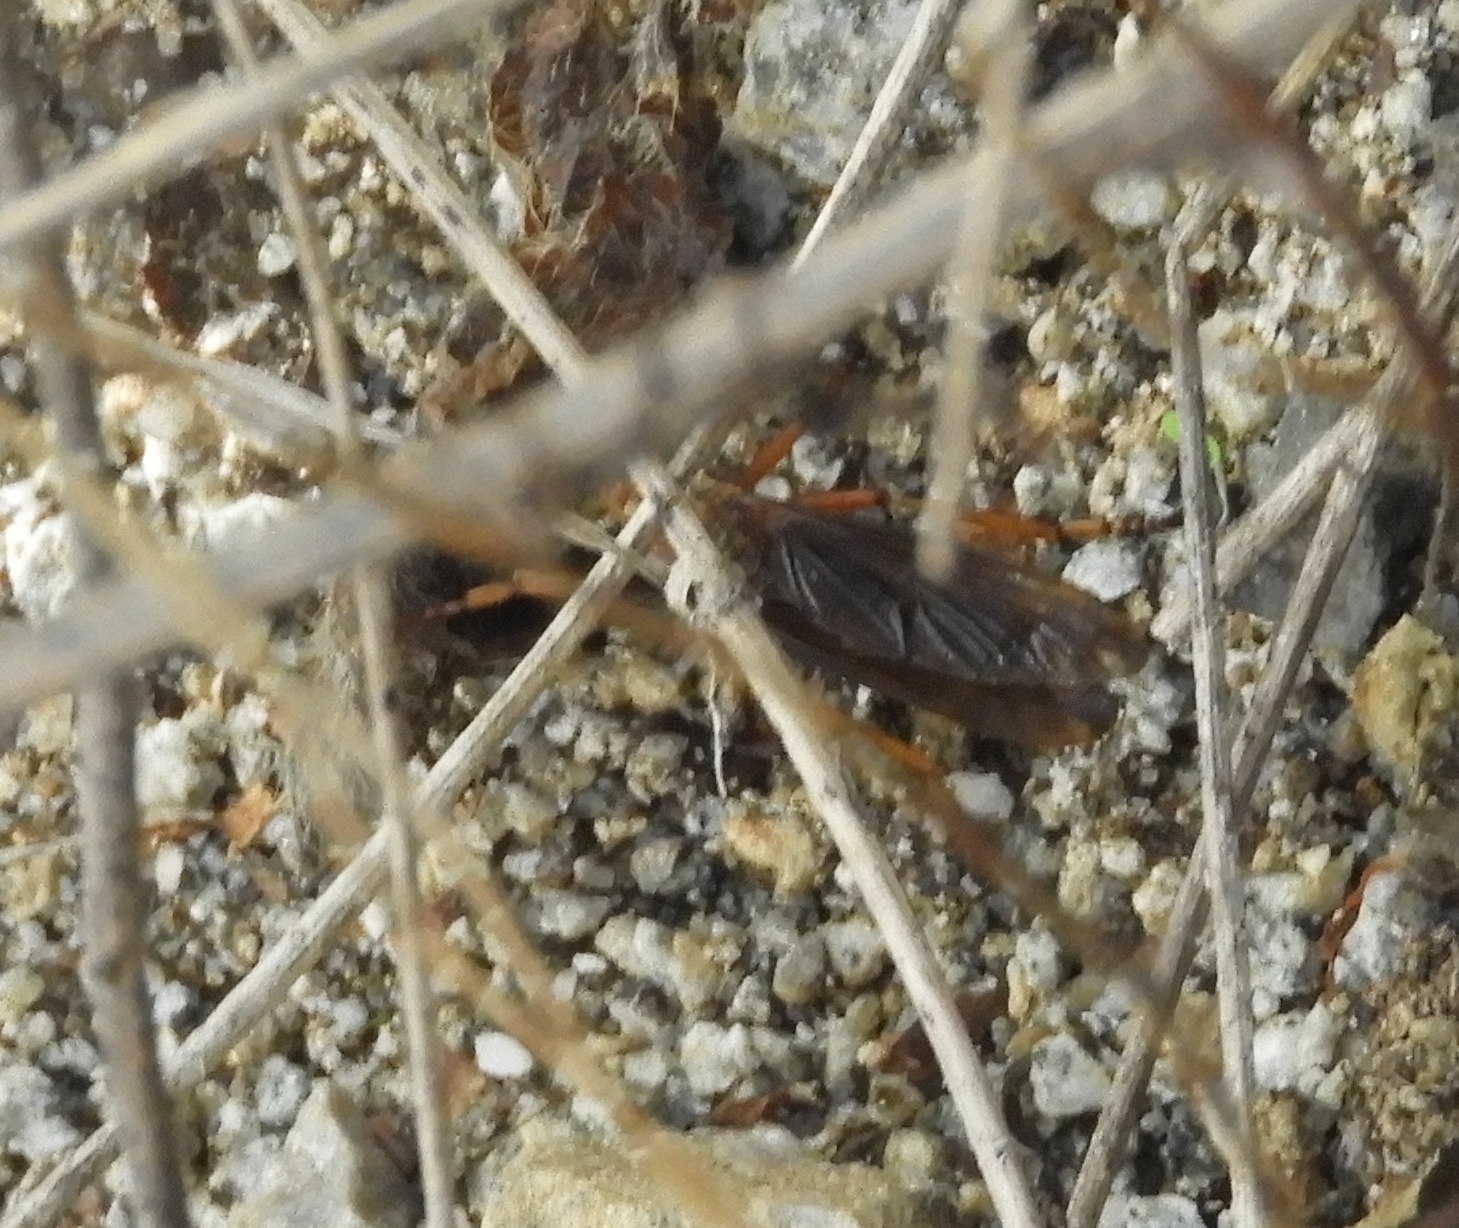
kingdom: Animalia
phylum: Arthropoda
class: Insecta
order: Diptera
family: Asilidae
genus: Diogmites
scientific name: Diogmites
